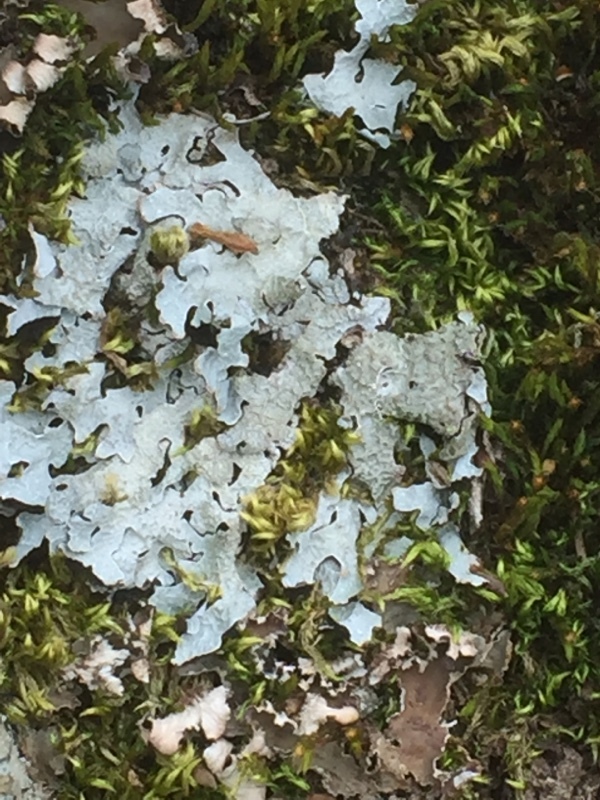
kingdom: Fungi
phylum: Ascomycota
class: Lecanoromycetes
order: Lecanorales
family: Parmeliaceae
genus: Parmelia
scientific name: Parmelia sulcata
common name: Netted shield lichen
